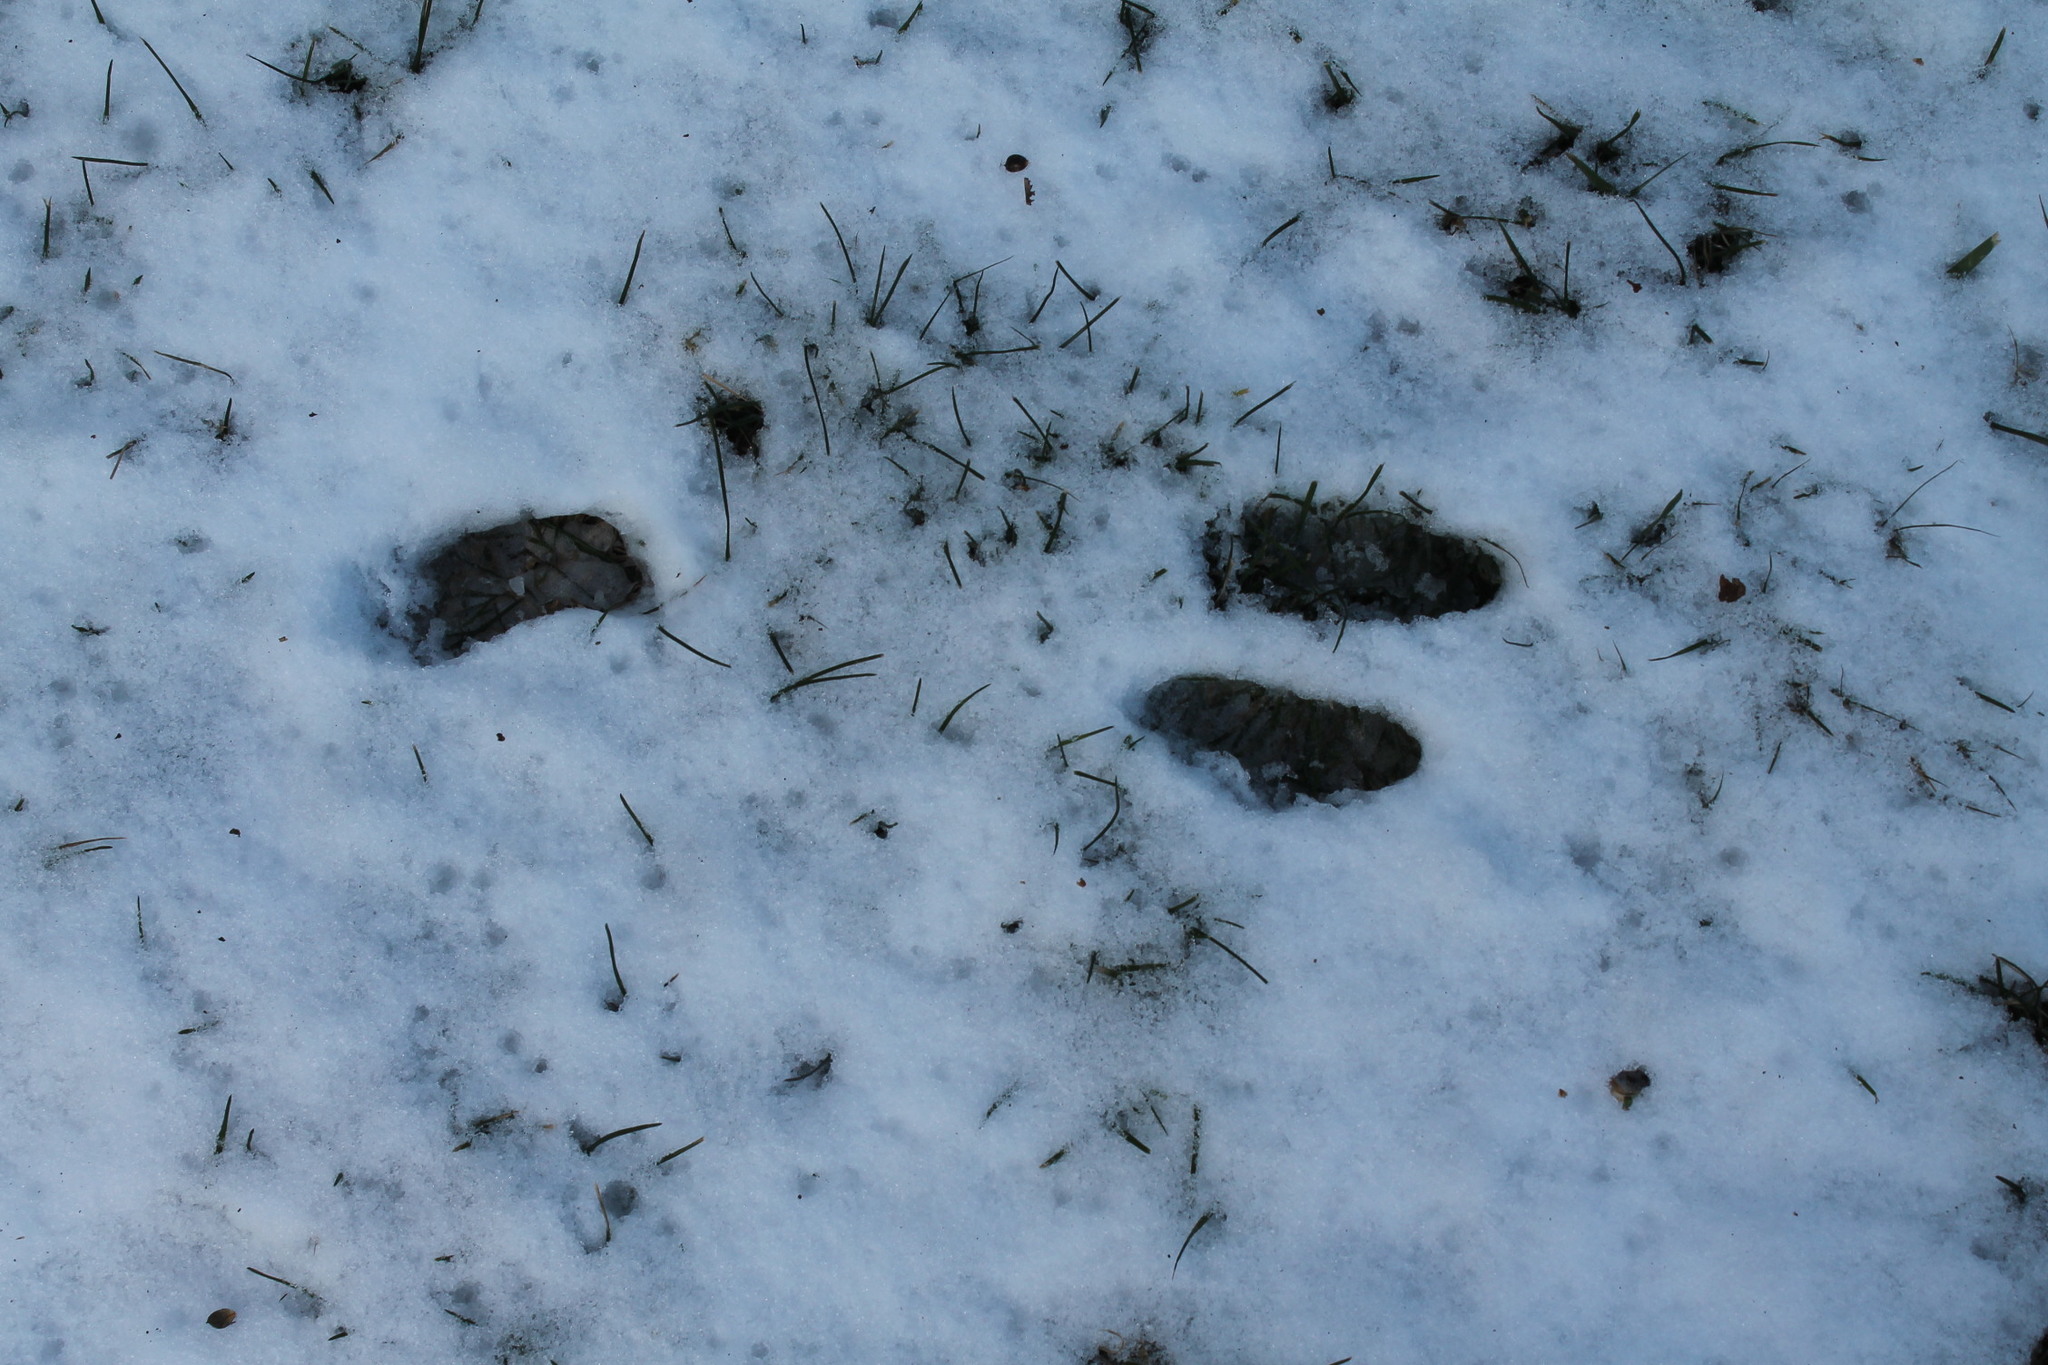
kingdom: Animalia
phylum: Chordata
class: Mammalia
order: Lagomorpha
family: Leporidae
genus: Sylvilagus
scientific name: Sylvilagus floridanus
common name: Eastern cottontail
